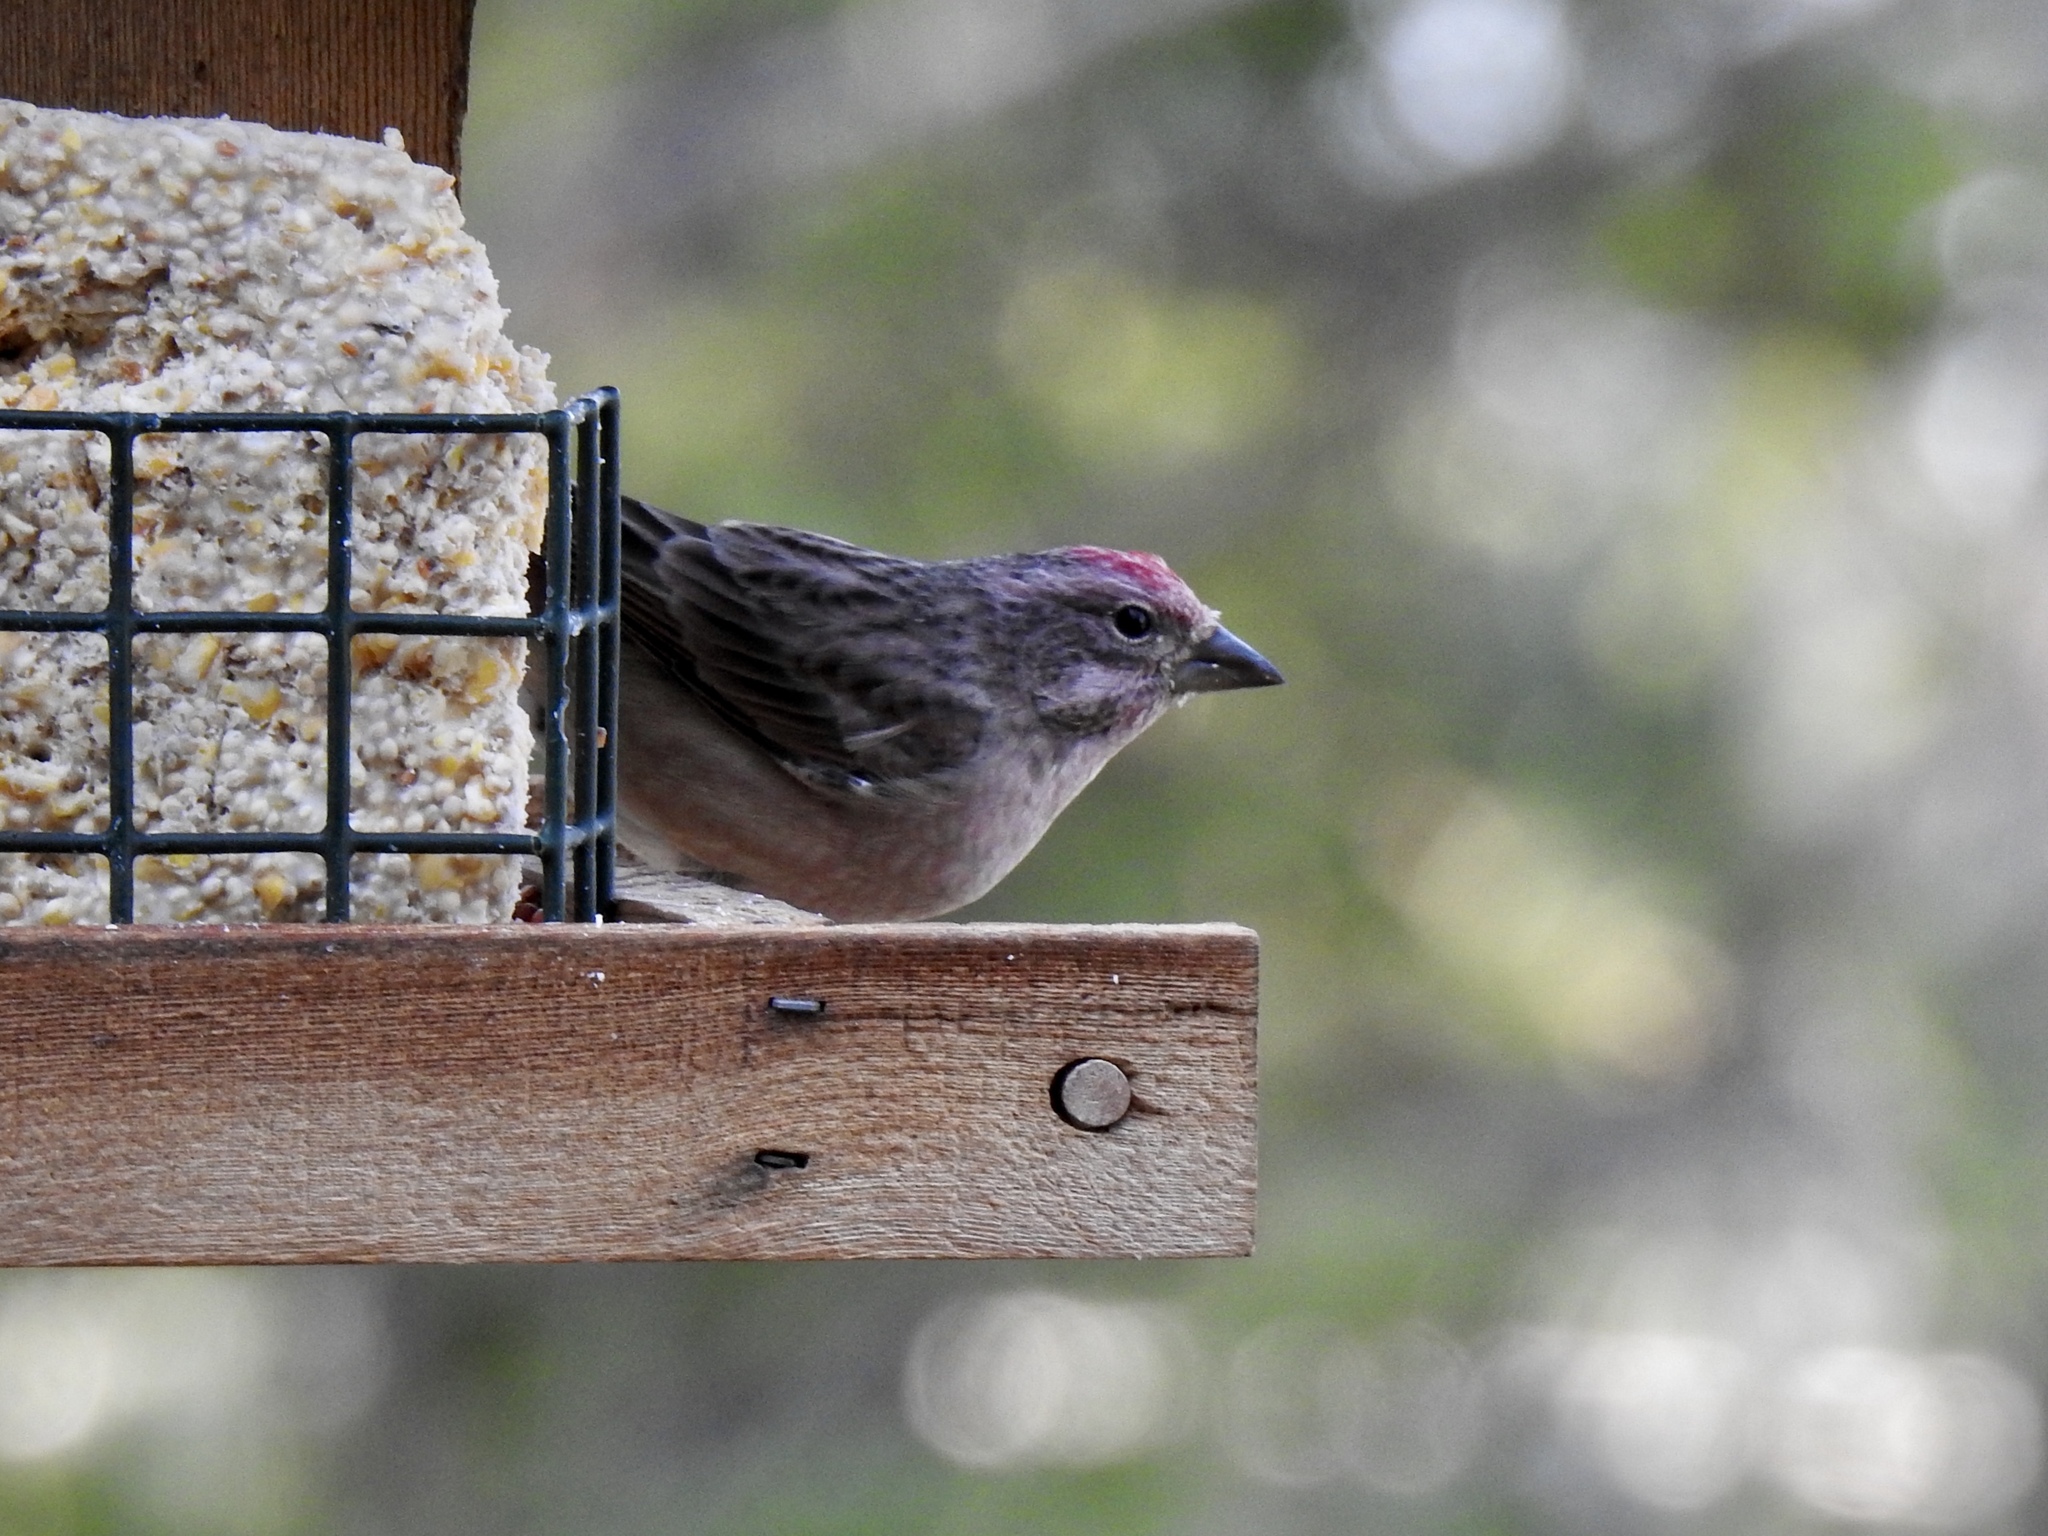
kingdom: Animalia
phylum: Chordata
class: Aves
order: Passeriformes
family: Fringillidae
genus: Haemorhous
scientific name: Haemorhous cassinii
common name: Cassin's finch
